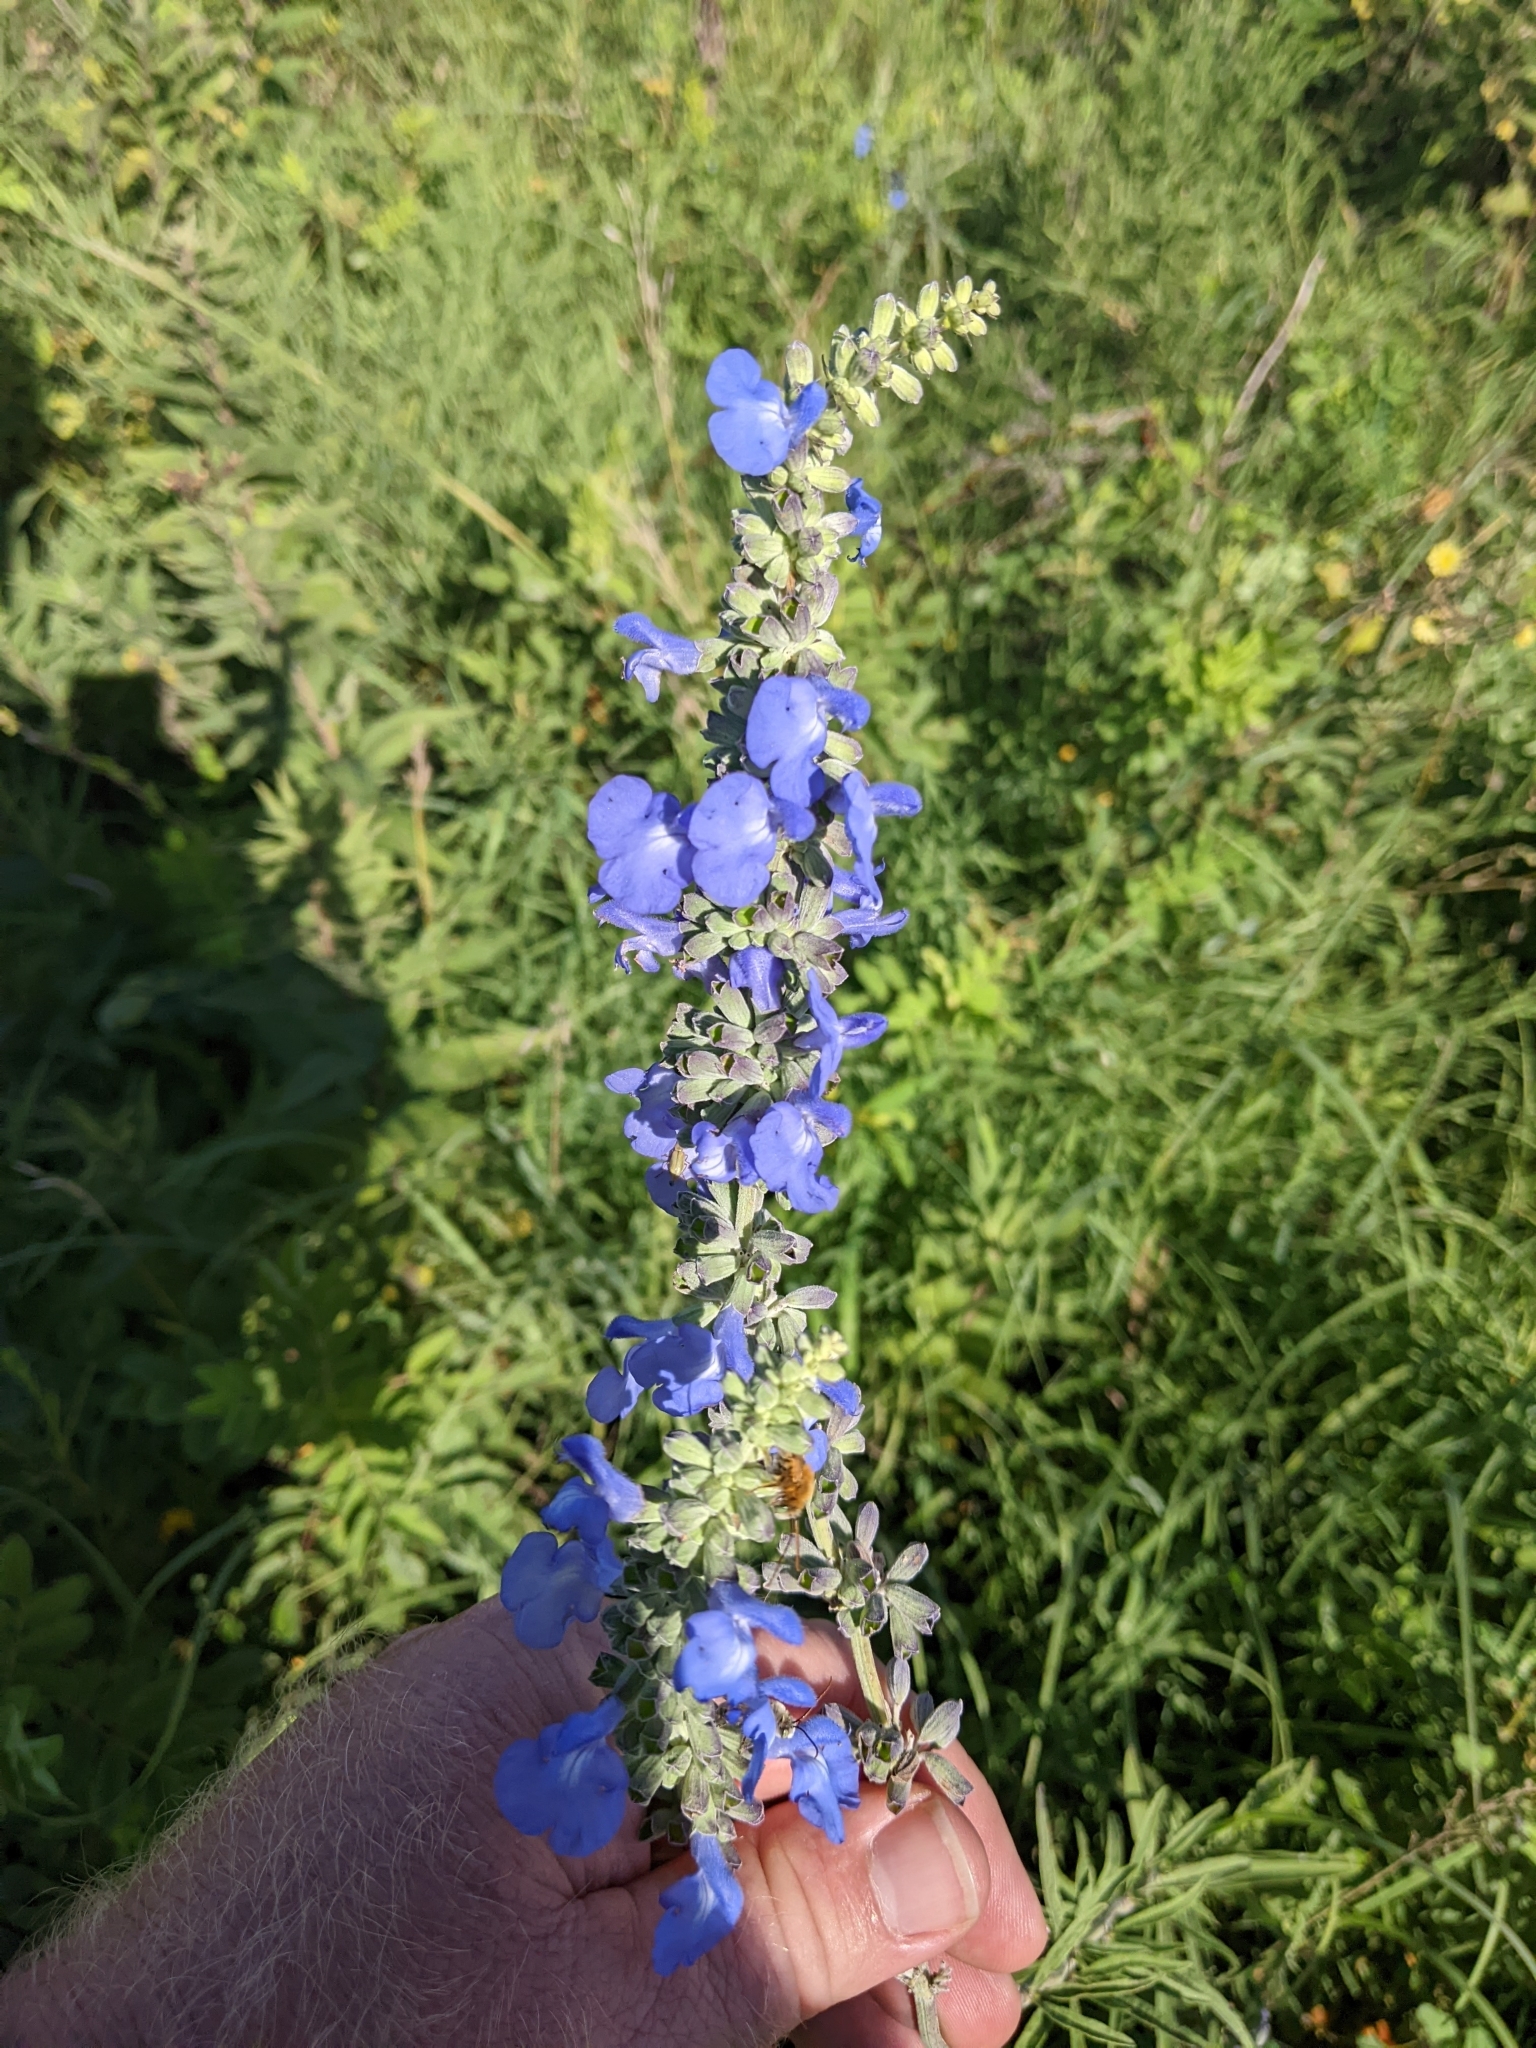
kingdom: Plantae
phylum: Tracheophyta
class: Magnoliopsida
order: Lamiales
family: Lamiaceae
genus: Salvia
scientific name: Salvia azurea
